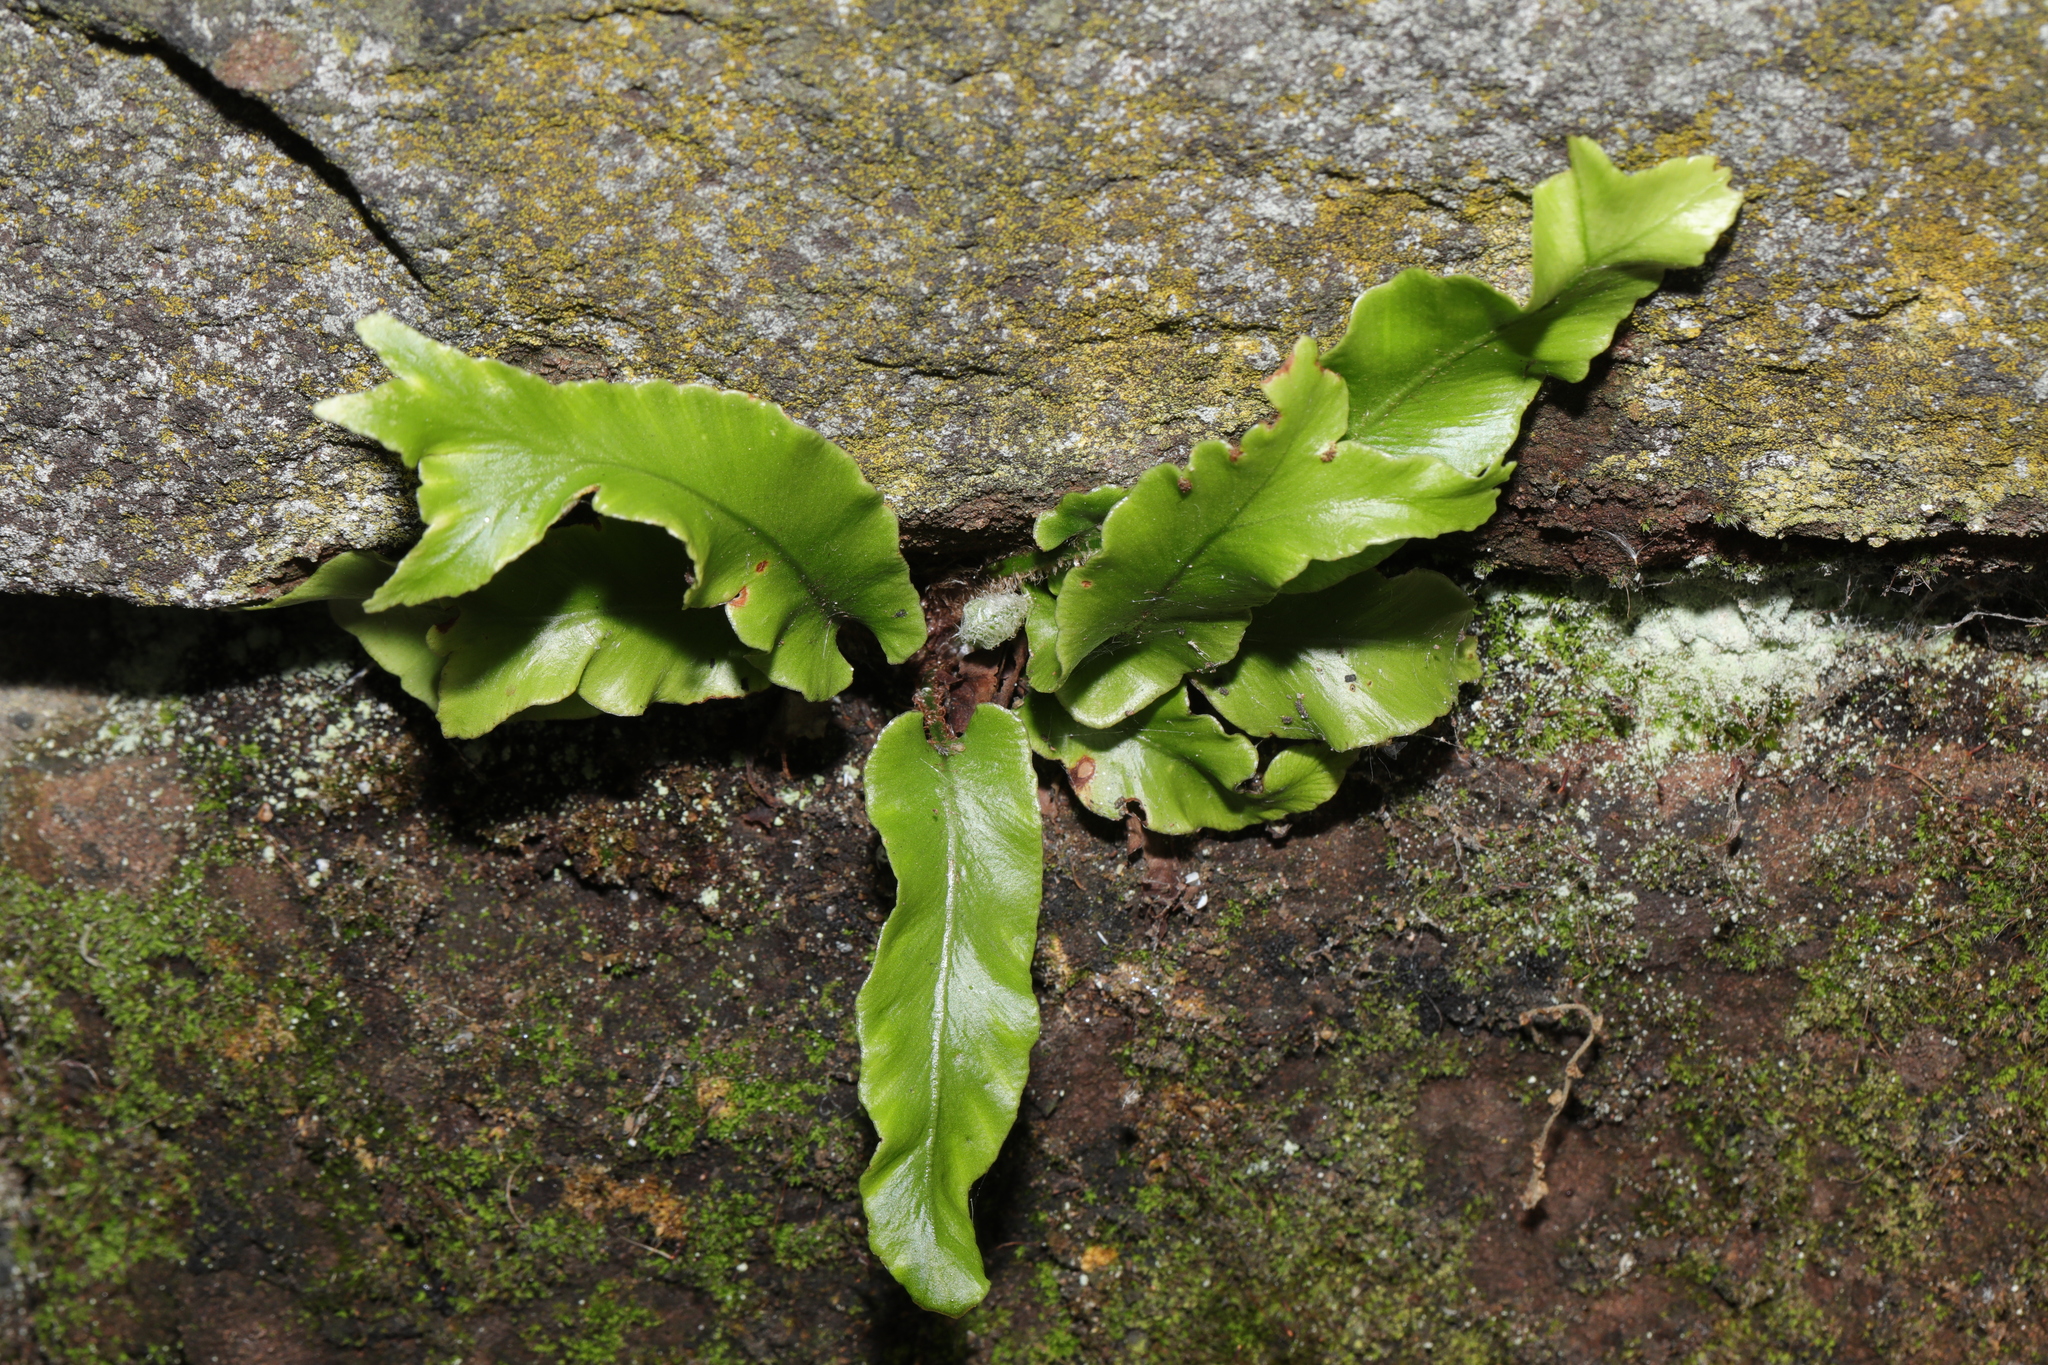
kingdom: Plantae
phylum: Tracheophyta
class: Polypodiopsida
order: Polypodiales
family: Aspleniaceae
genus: Asplenium
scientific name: Asplenium scolopendrium
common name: Hart's-tongue fern
